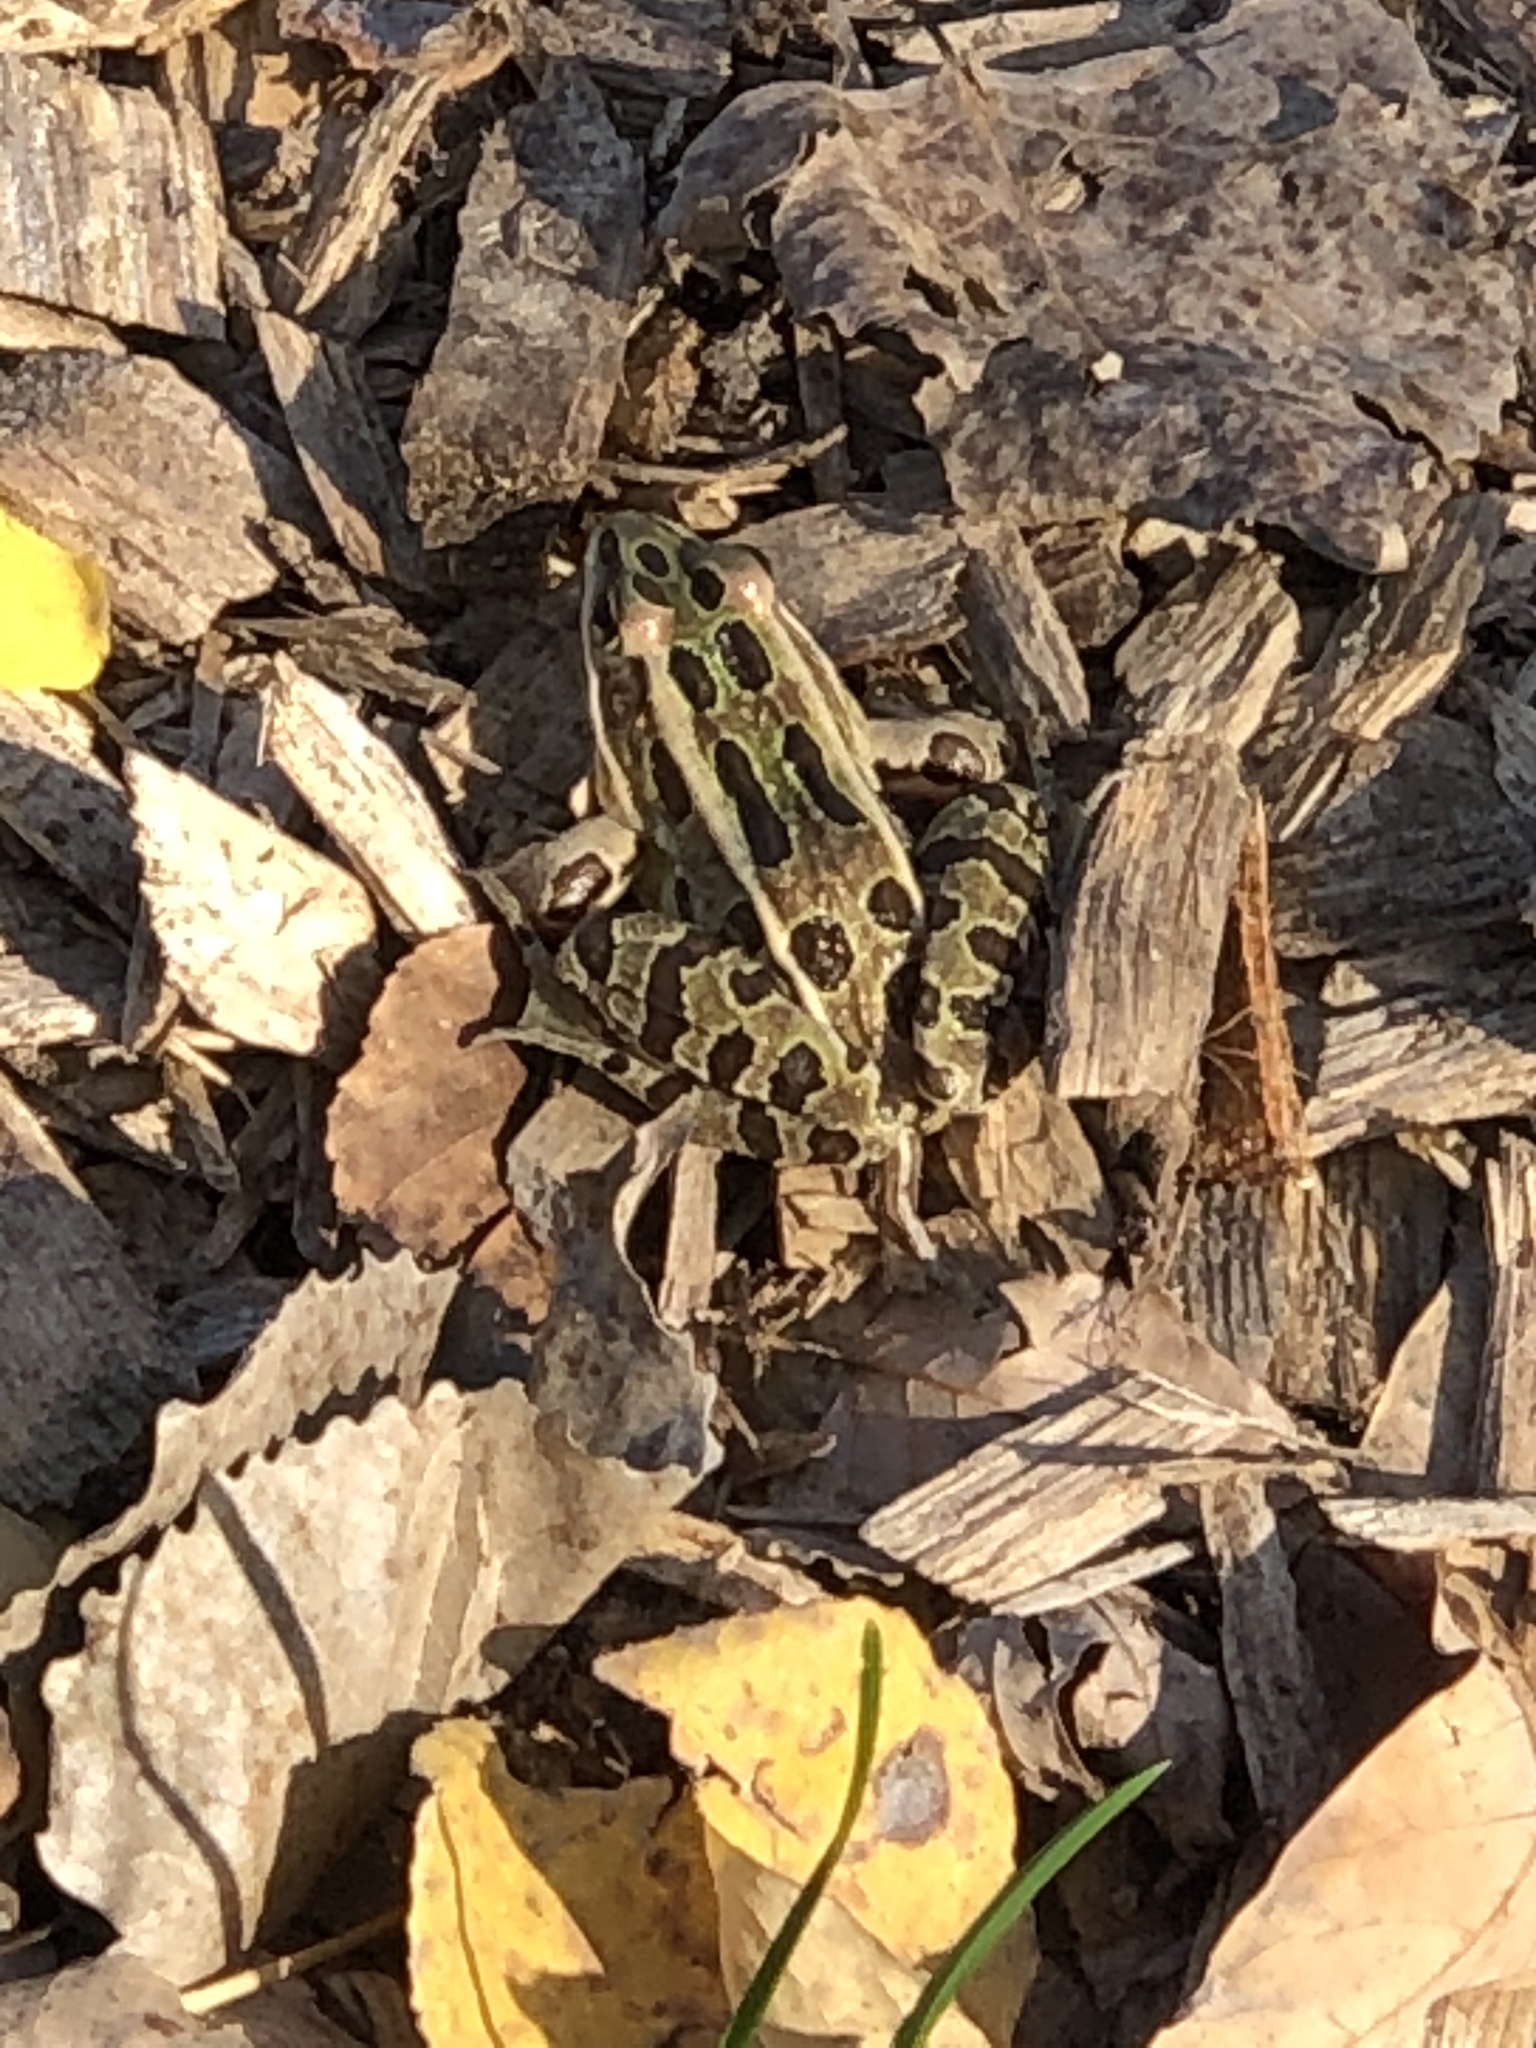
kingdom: Animalia
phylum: Chordata
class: Amphibia
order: Anura
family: Ranidae
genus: Lithobates
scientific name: Lithobates pipiens
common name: Northern leopard frog
